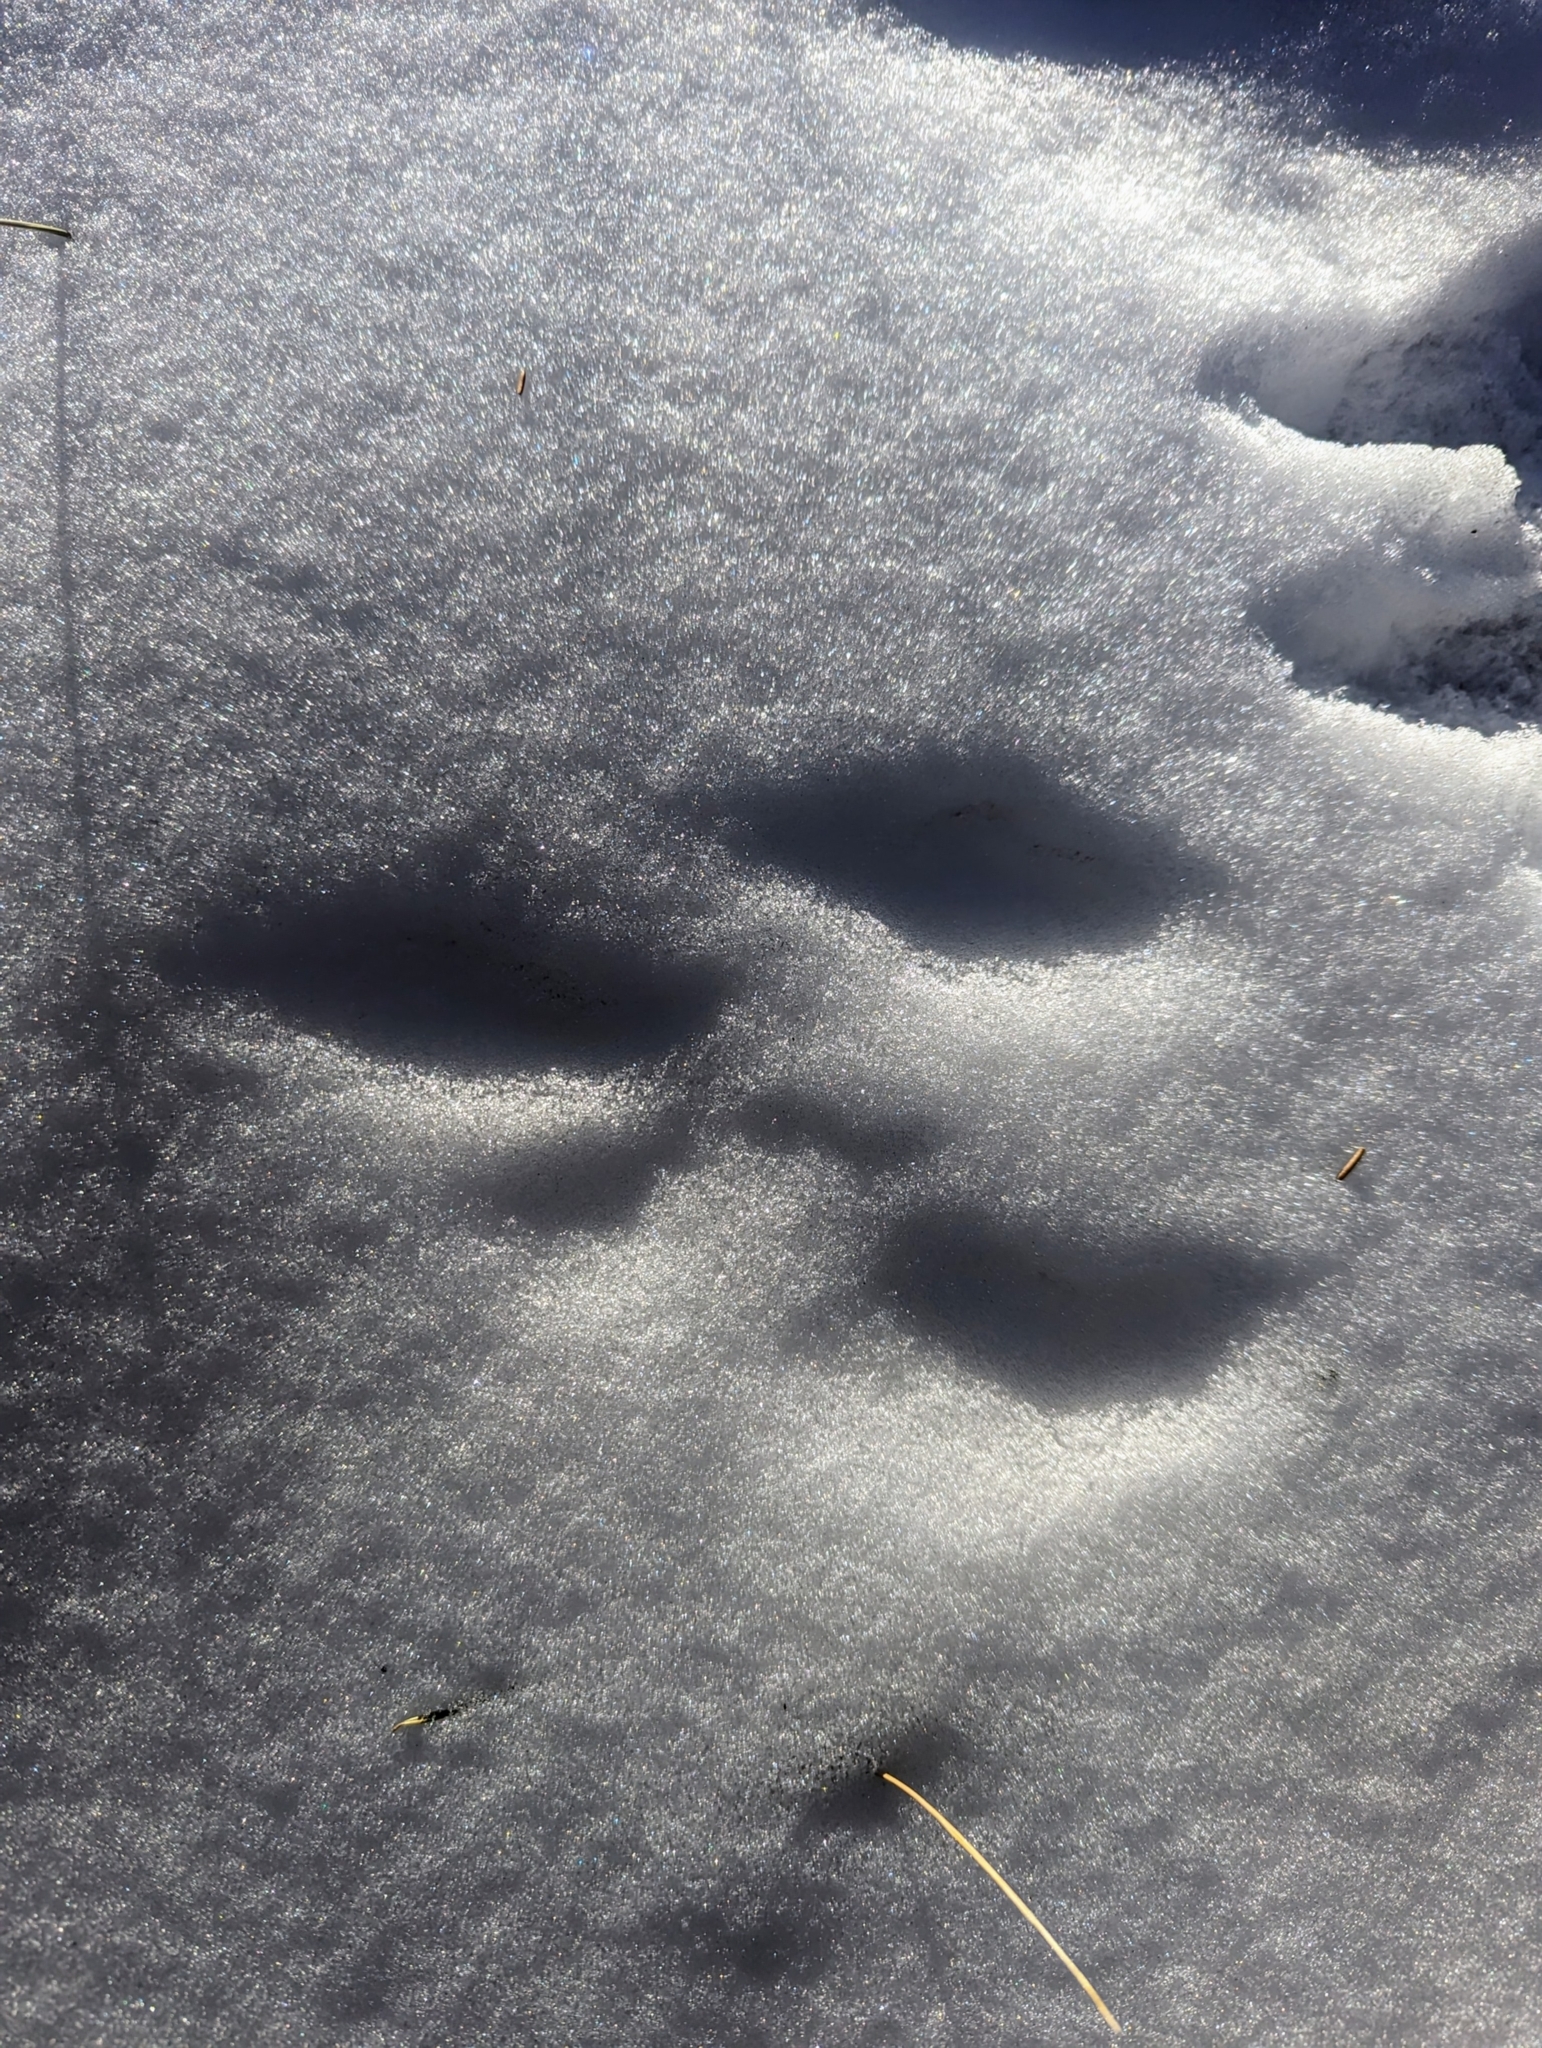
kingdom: Animalia
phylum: Chordata
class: Mammalia
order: Lagomorpha
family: Leporidae
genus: Lepus
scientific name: Lepus americanus
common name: Snowshoe hare
